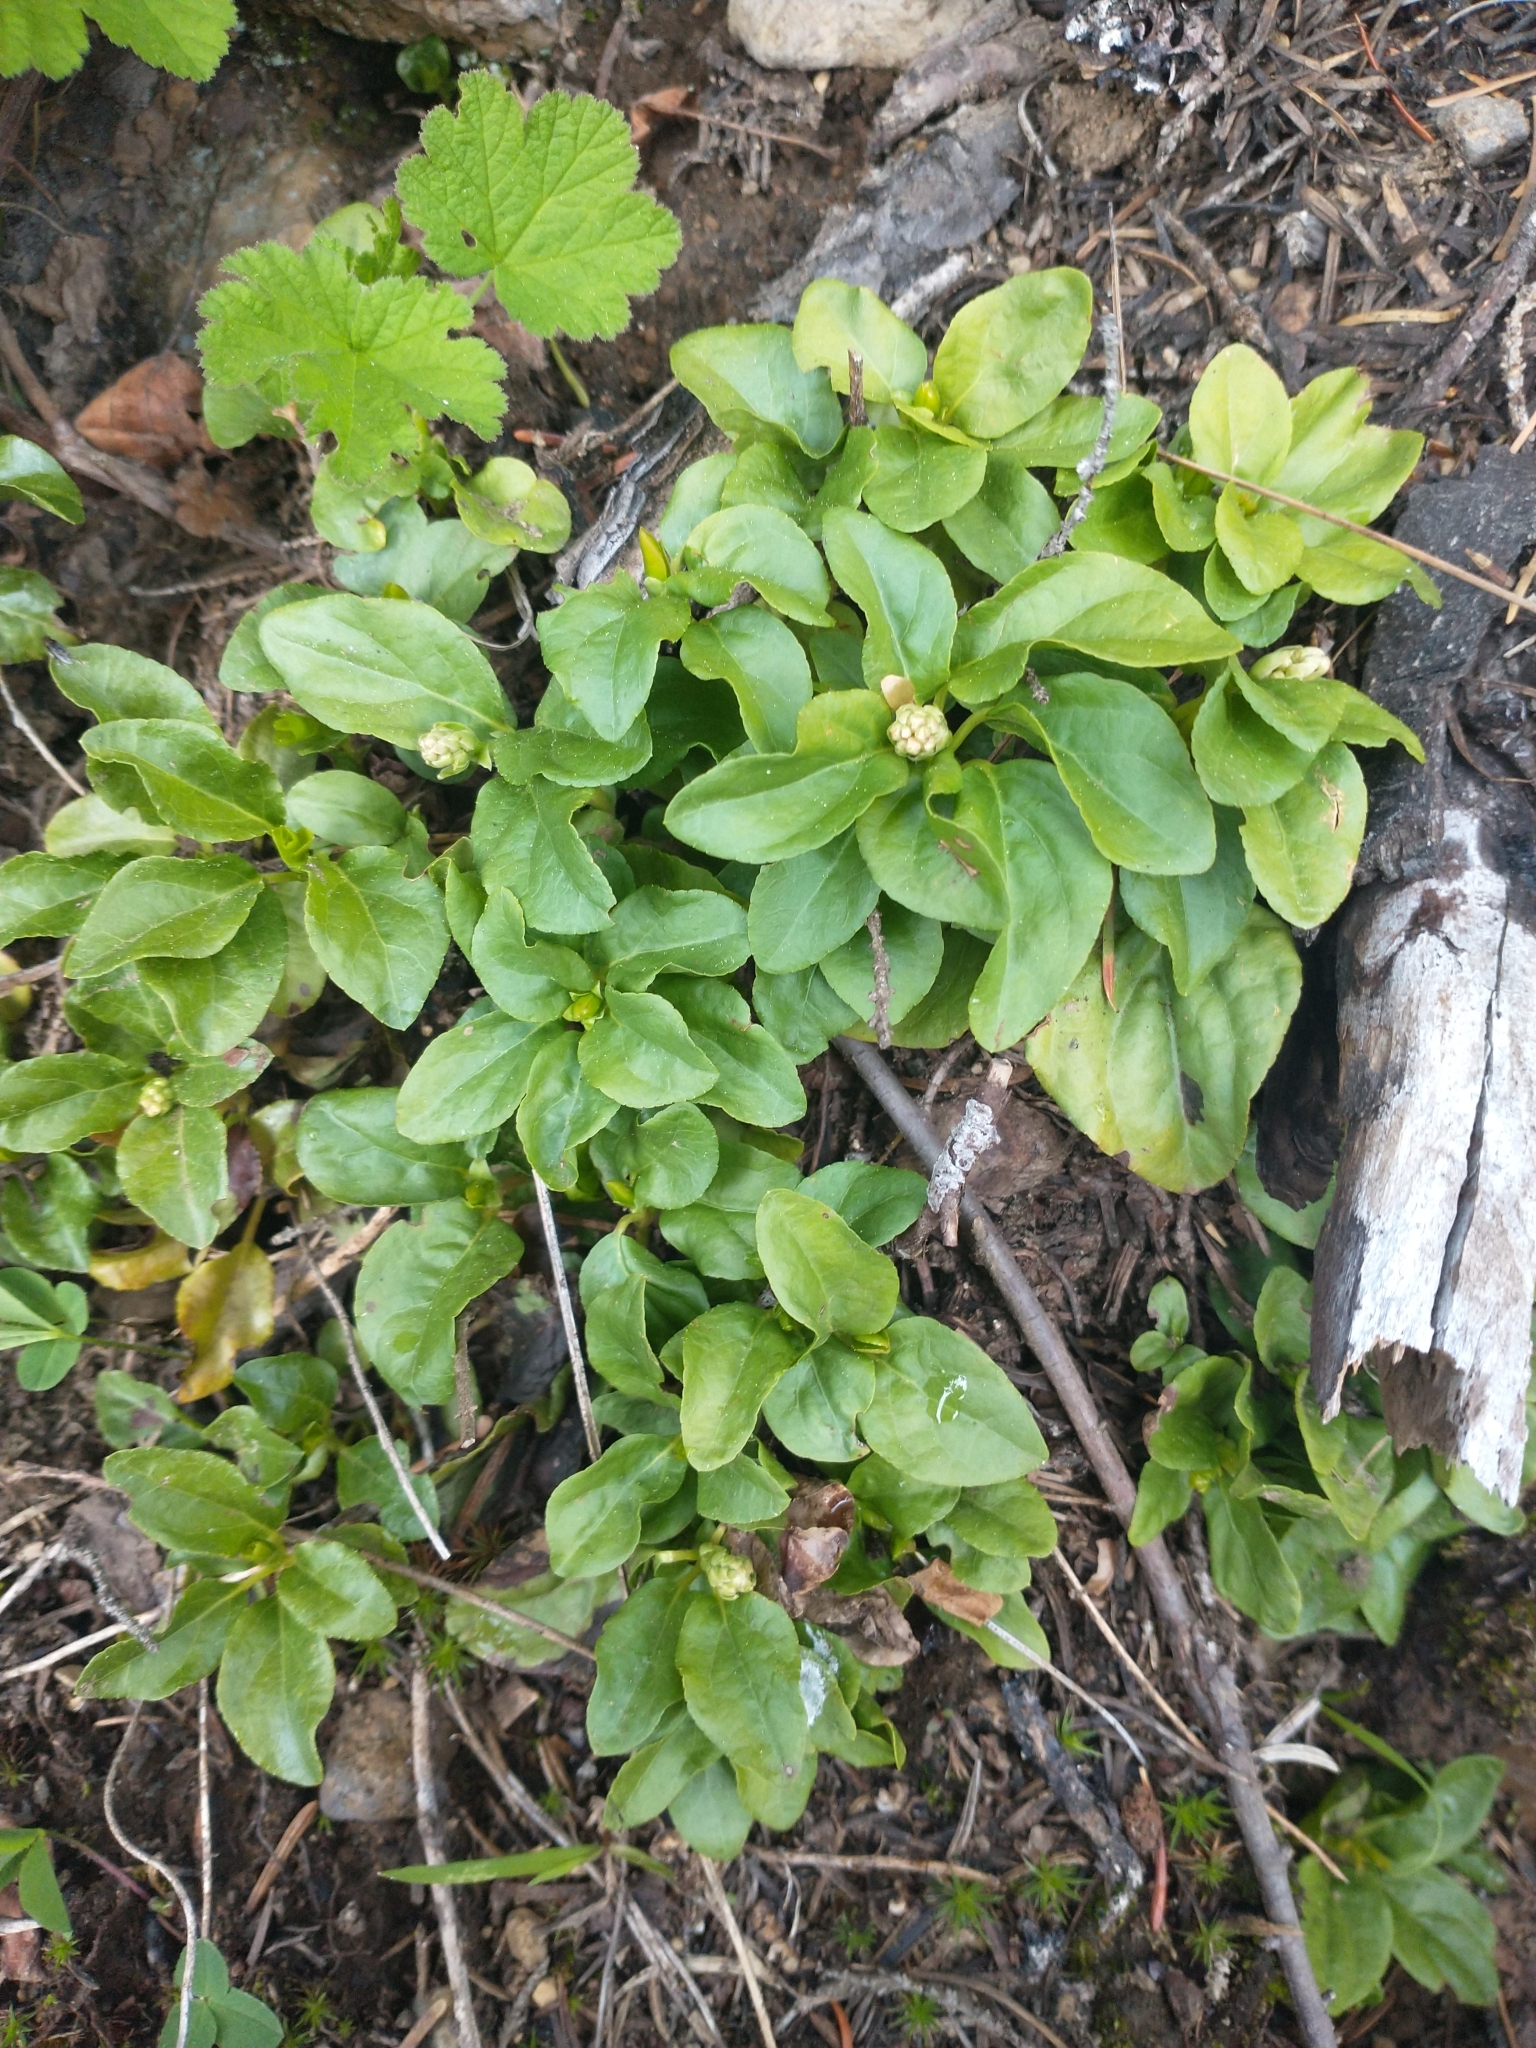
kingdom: Plantae
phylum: Tracheophyta
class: Magnoliopsida
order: Ericales
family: Ericaceae
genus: Orthilia
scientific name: Orthilia secunda
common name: One-sided orthilia
